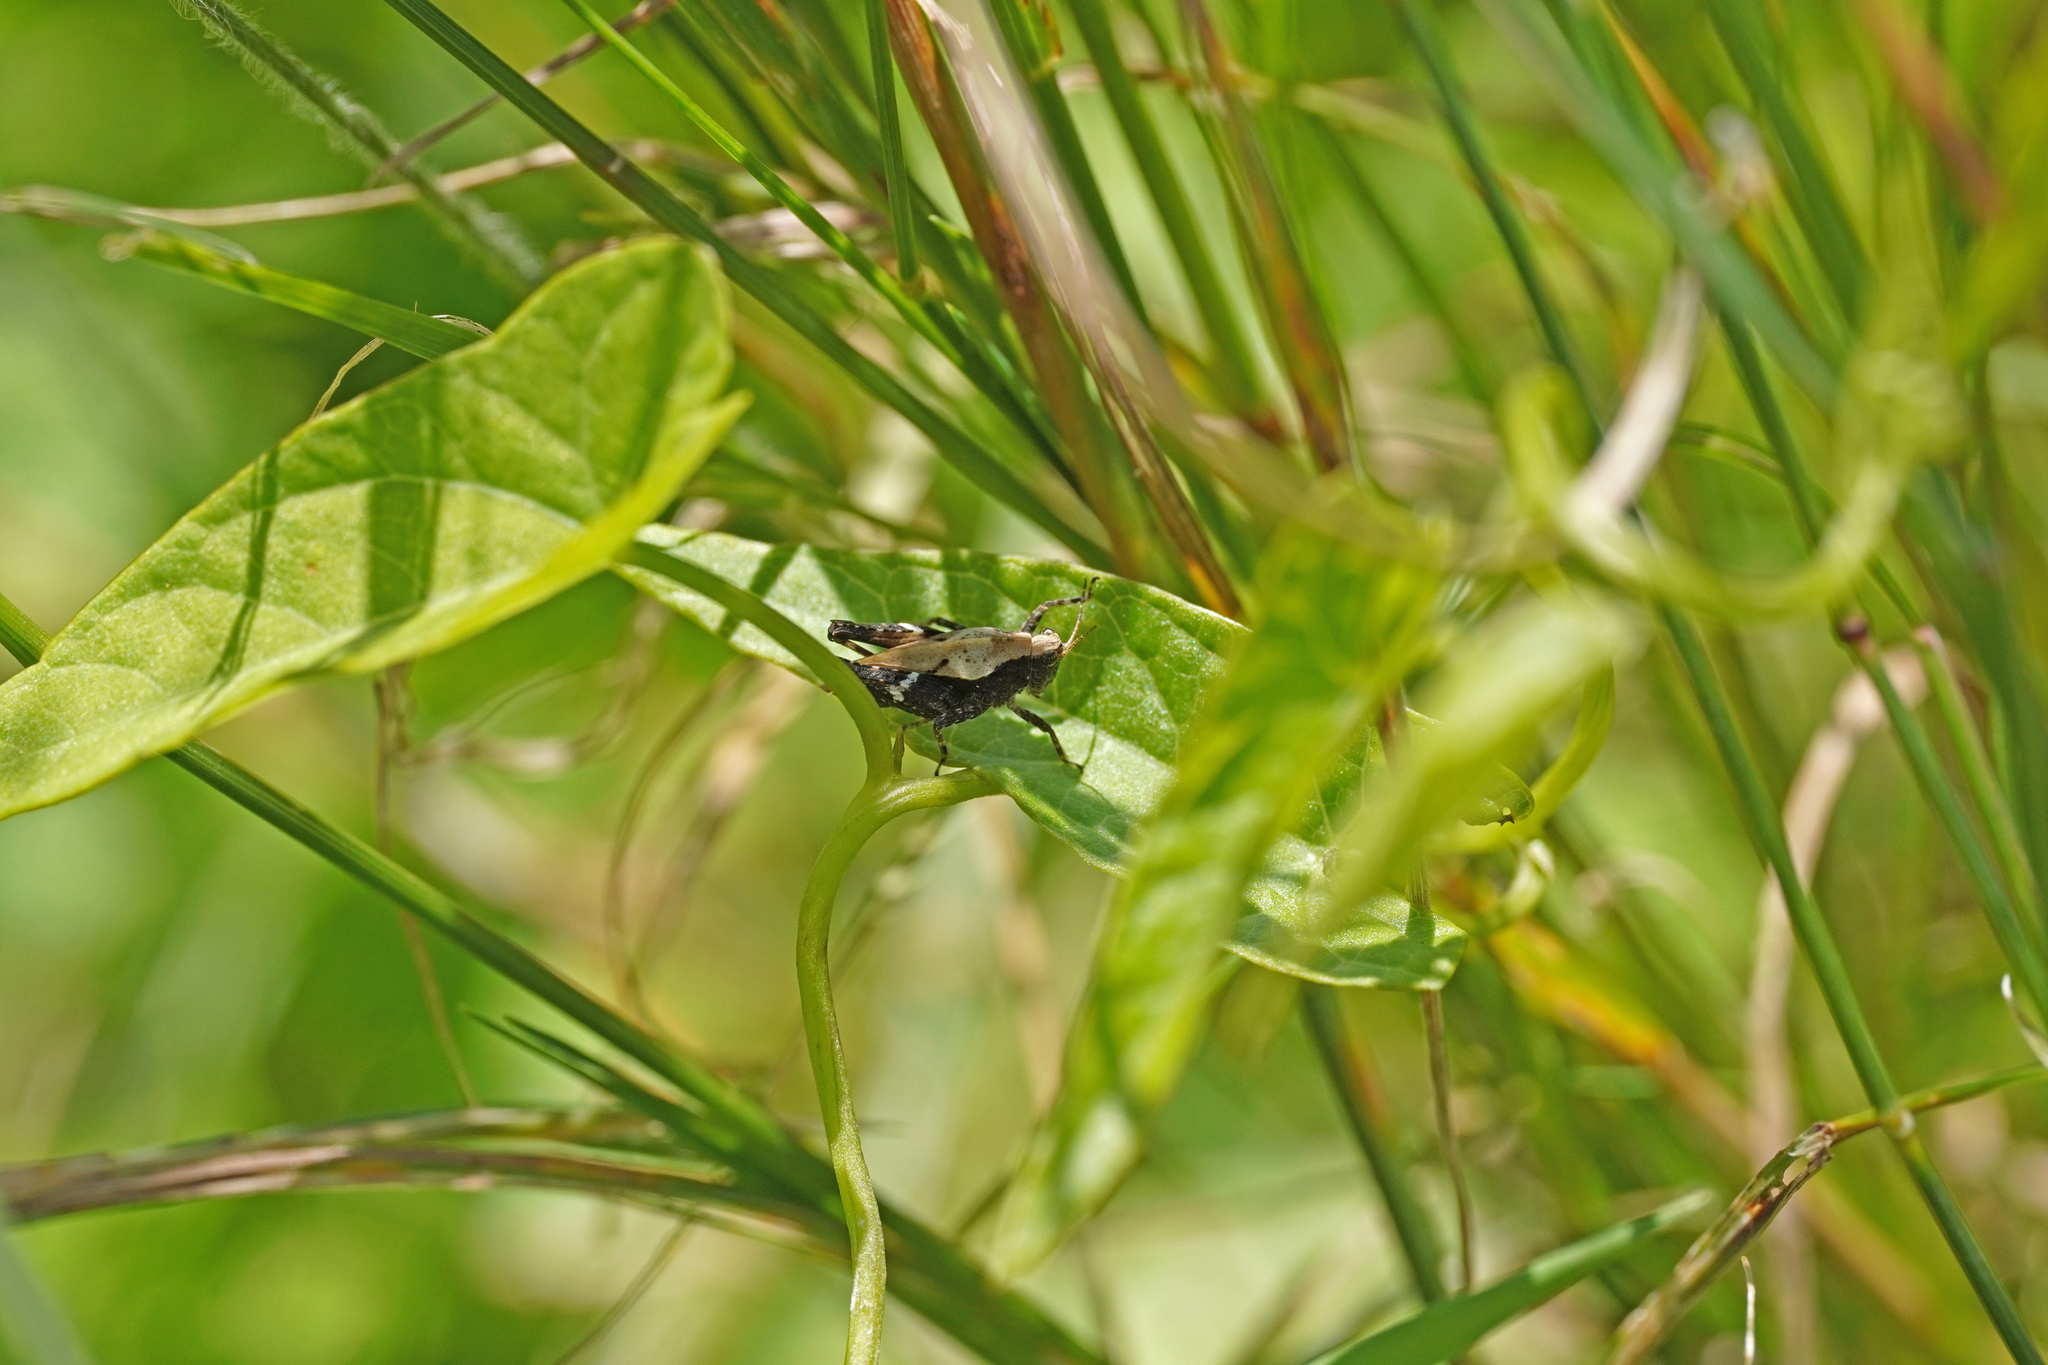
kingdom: Animalia
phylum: Arthropoda
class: Insecta
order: Orthoptera
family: Tetrigidae
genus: Tetrix
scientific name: Tetrix undulata
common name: Common groundhopper
